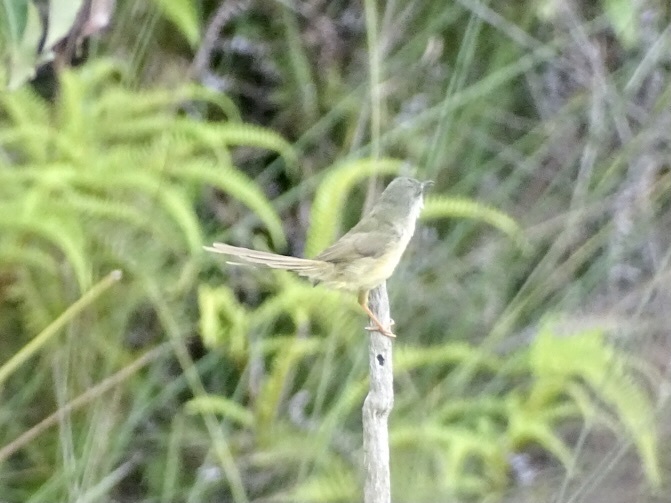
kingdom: Animalia
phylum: Chordata
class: Aves
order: Passeriformes
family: Cisticolidae
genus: Prinia
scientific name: Prinia flaviventris
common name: Yellow-bellied prinia
